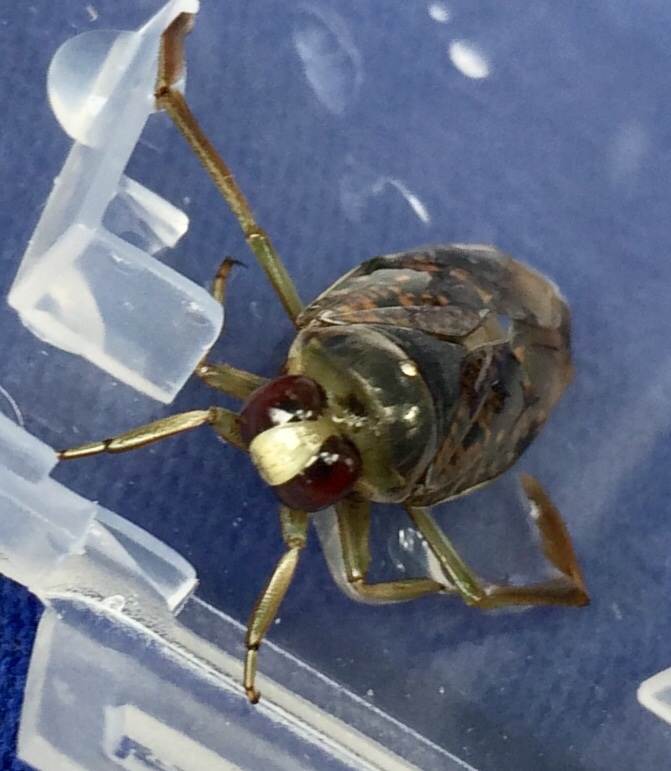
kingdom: Animalia
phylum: Arthropoda
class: Insecta
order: Hemiptera
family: Notonectidae
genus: Notonecta
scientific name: Notonecta irrorata
